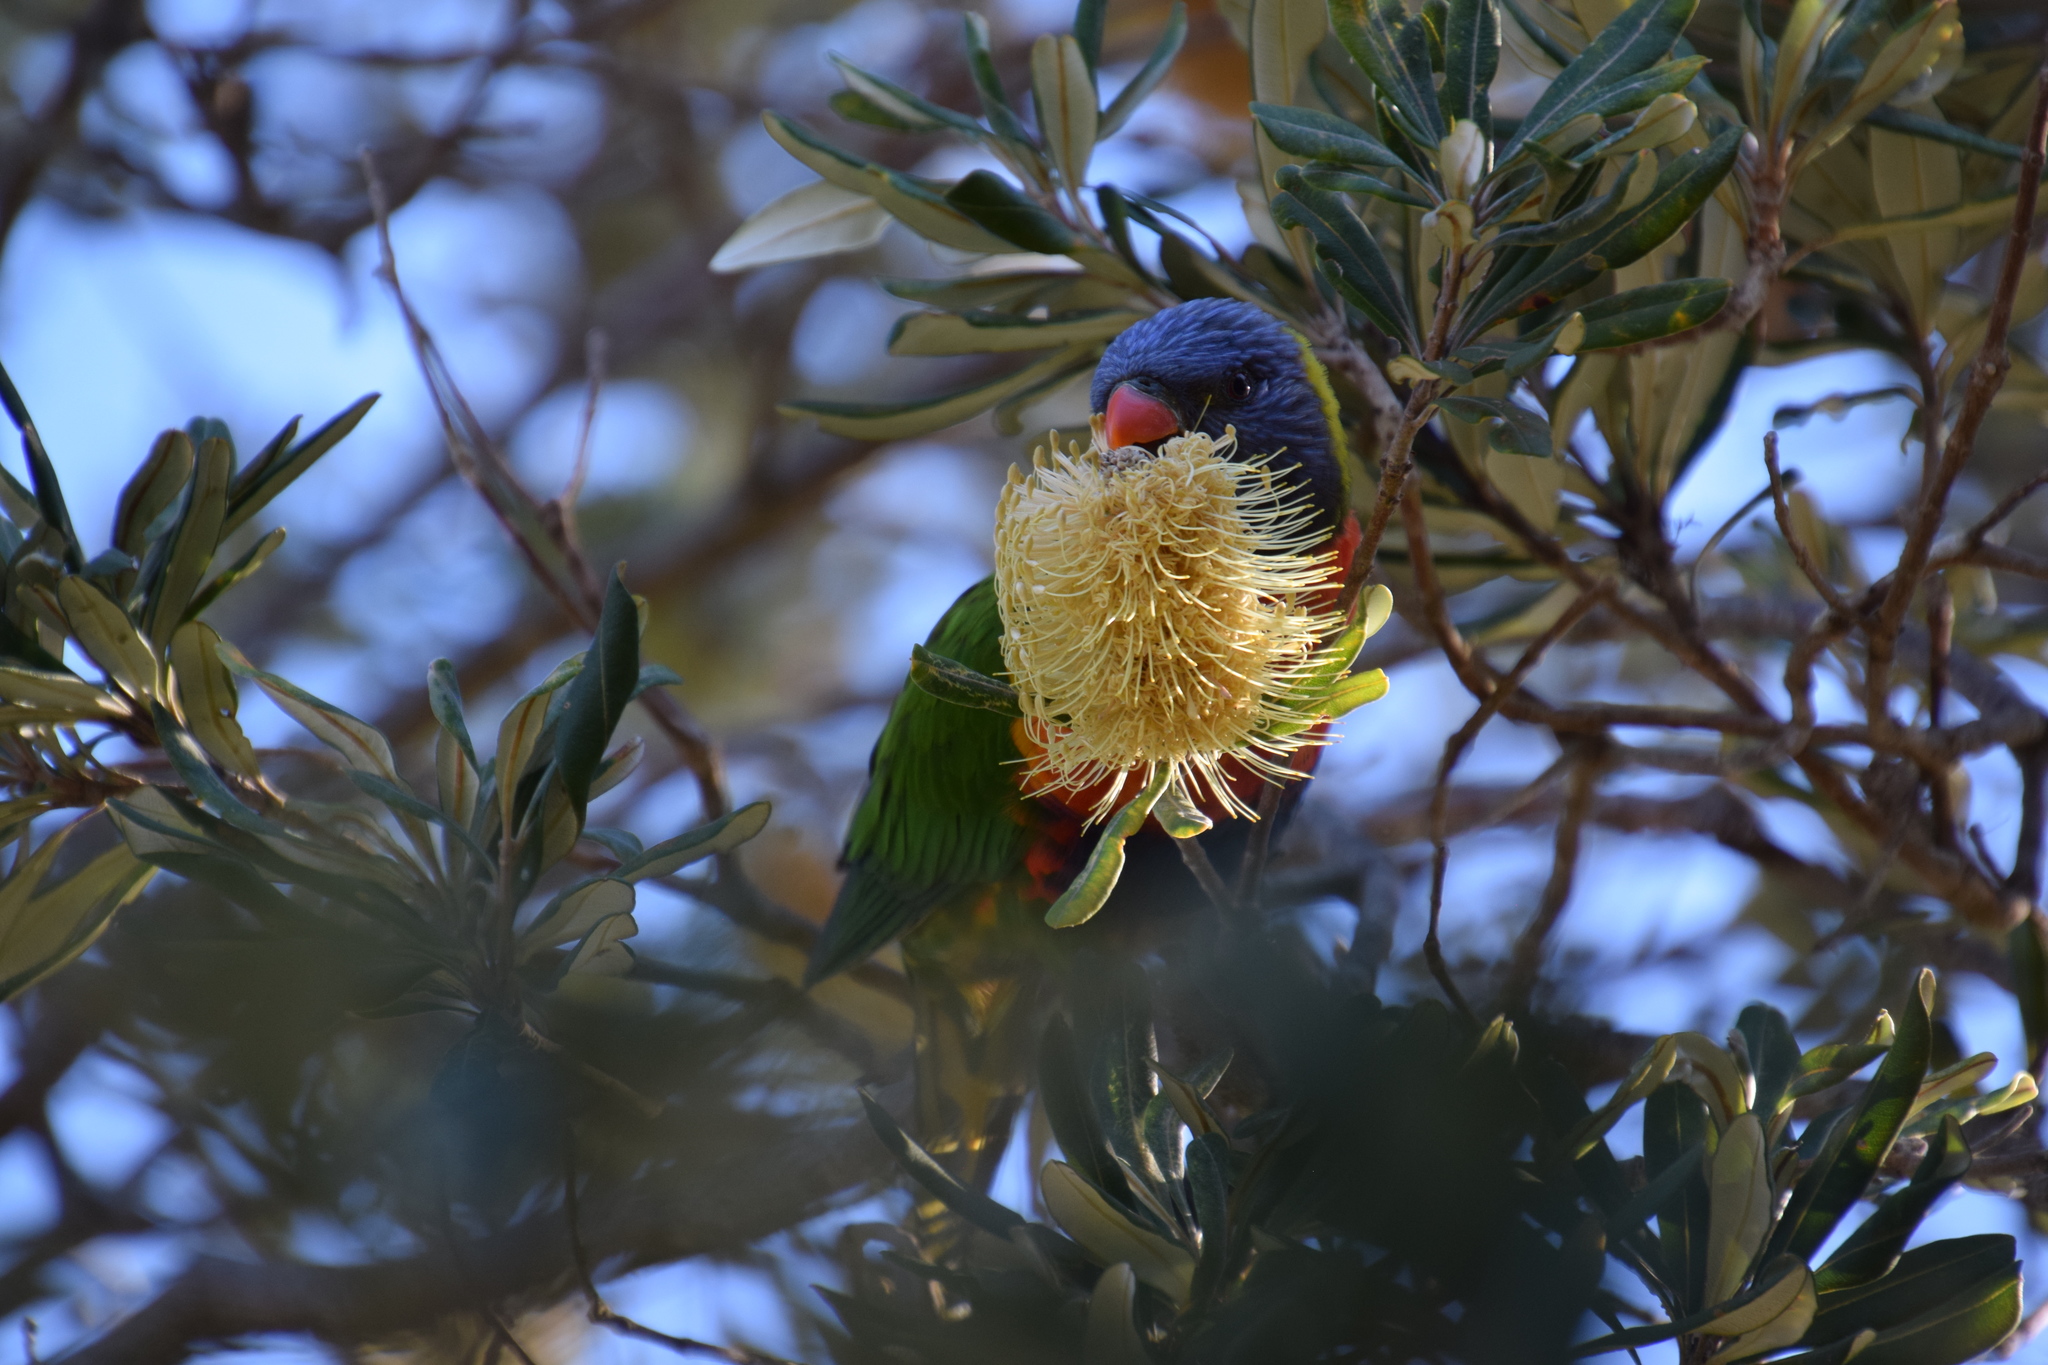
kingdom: Animalia
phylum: Chordata
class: Aves
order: Psittaciformes
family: Psittacidae
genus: Trichoglossus
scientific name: Trichoglossus haematodus
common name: Coconut lorikeet
